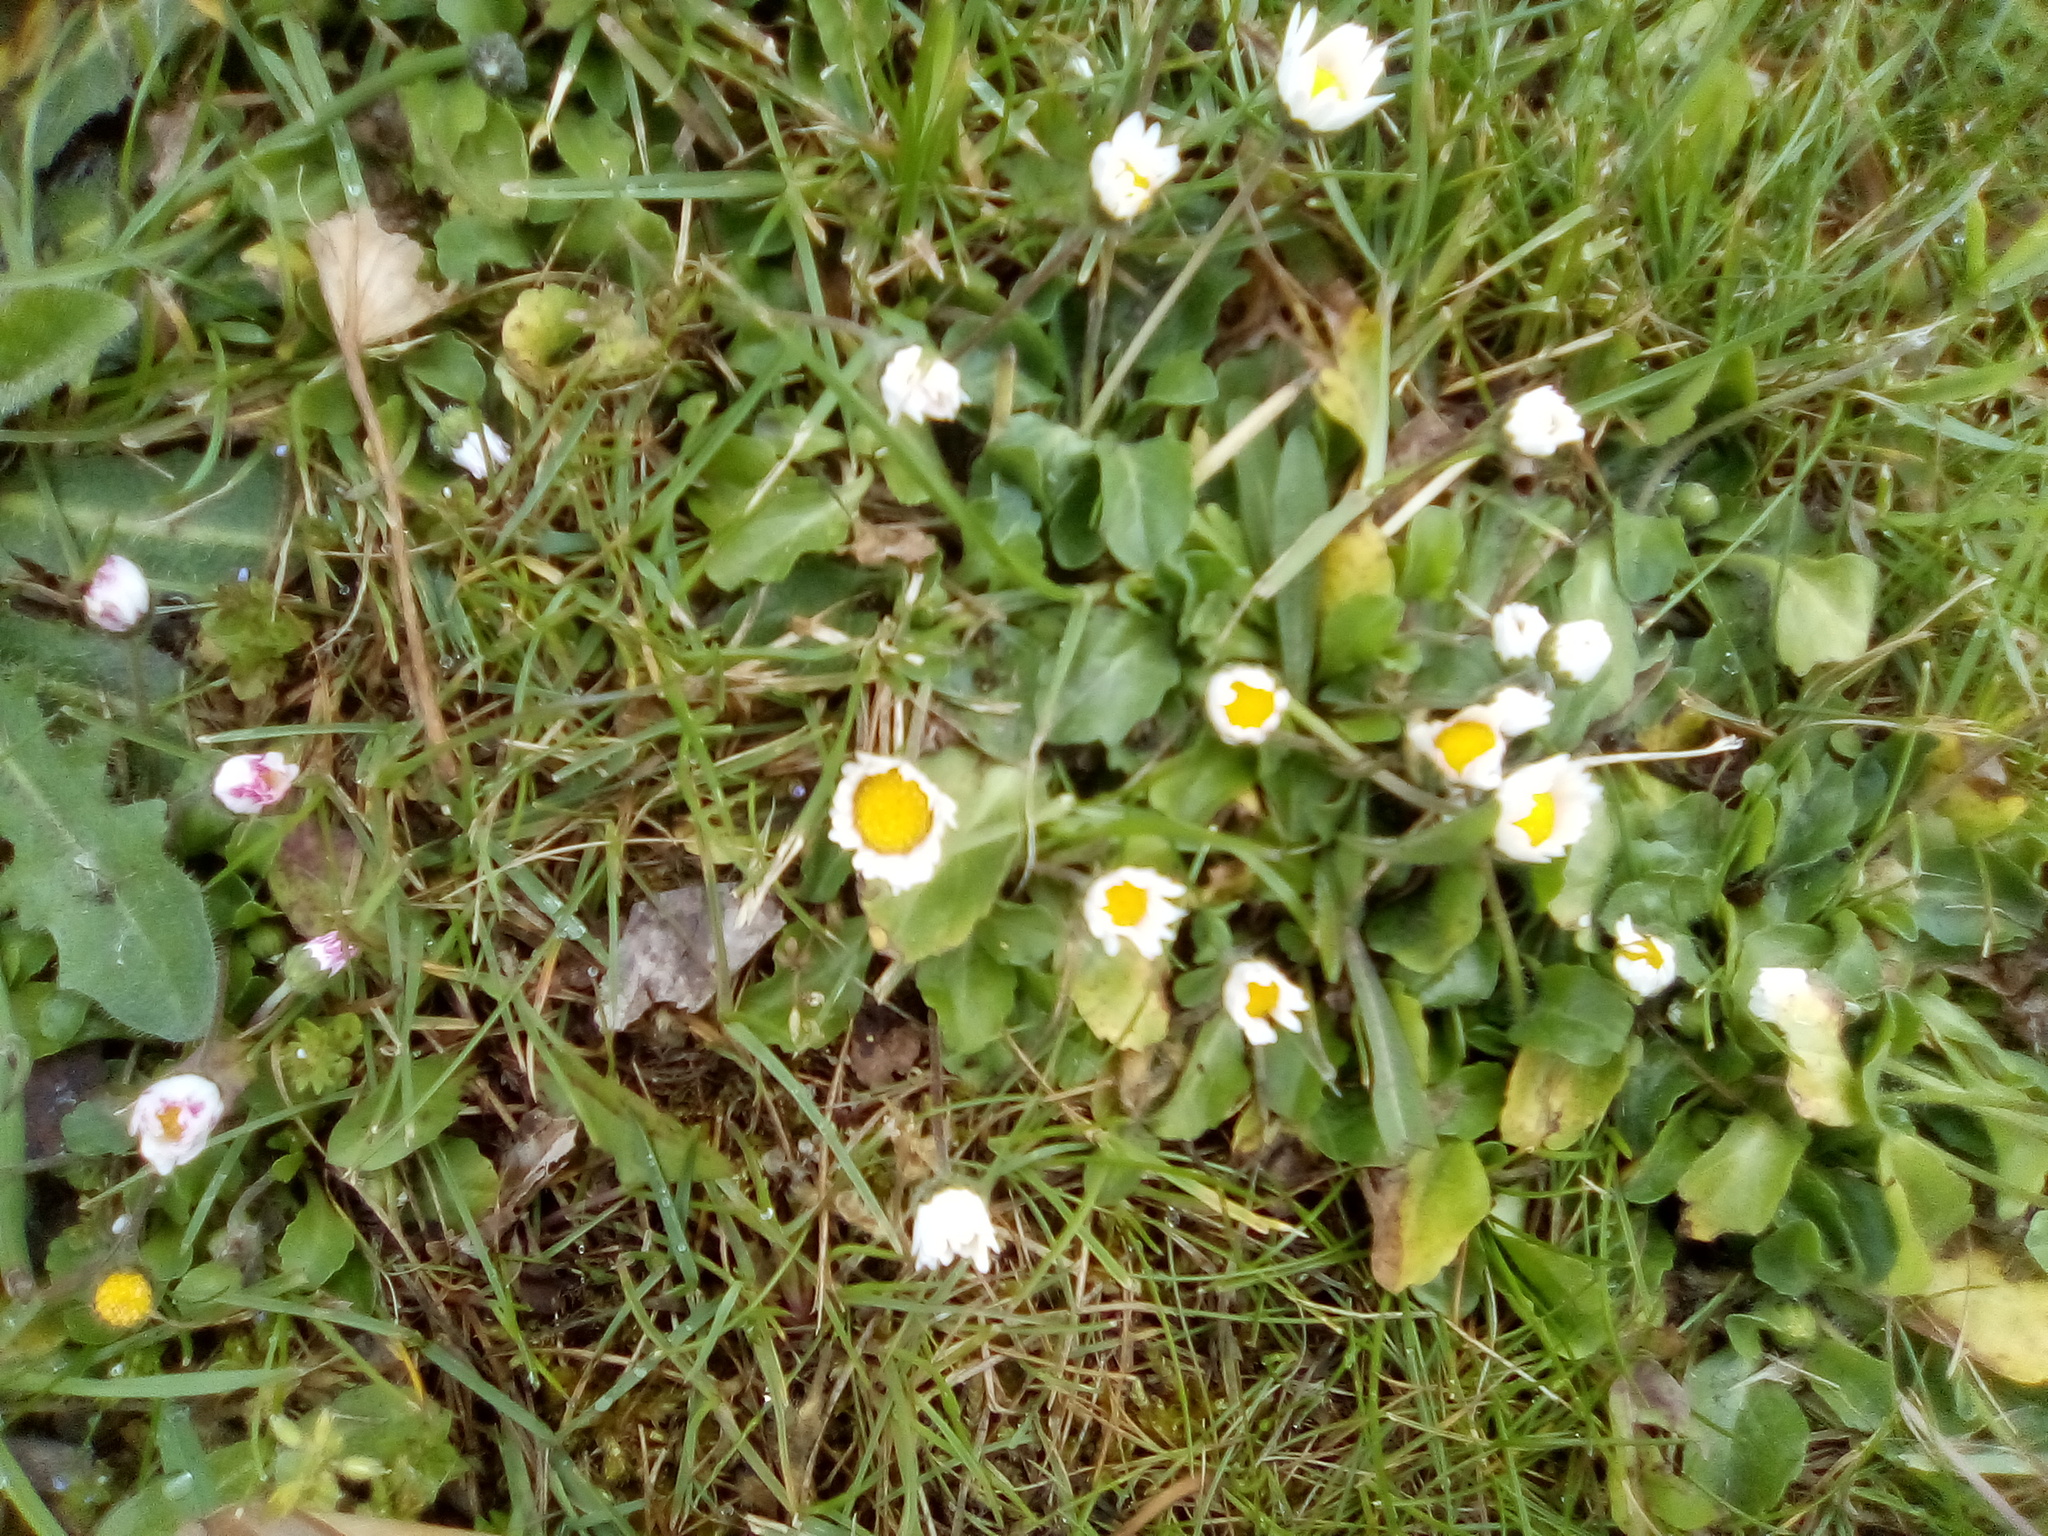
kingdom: Plantae
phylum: Tracheophyta
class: Magnoliopsida
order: Asterales
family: Asteraceae
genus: Bellis
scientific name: Bellis perennis
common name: Lawndaisy
